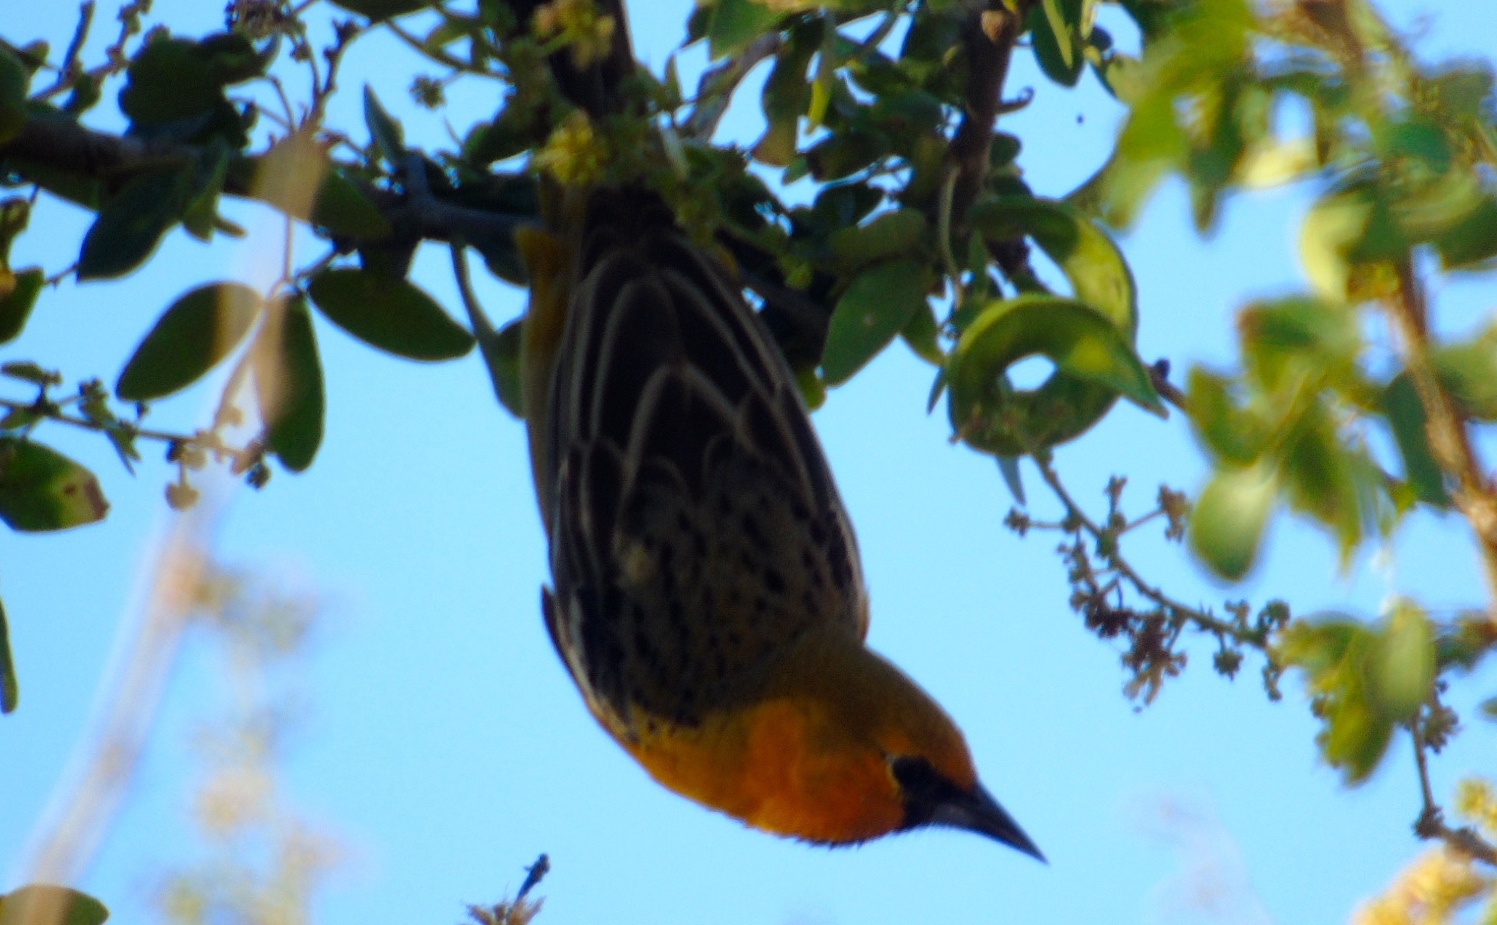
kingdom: Animalia
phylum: Chordata
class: Aves
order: Passeriformes
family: Icteridae
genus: Icterus
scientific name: Icterus pustulatus
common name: Streak-backed oriole
